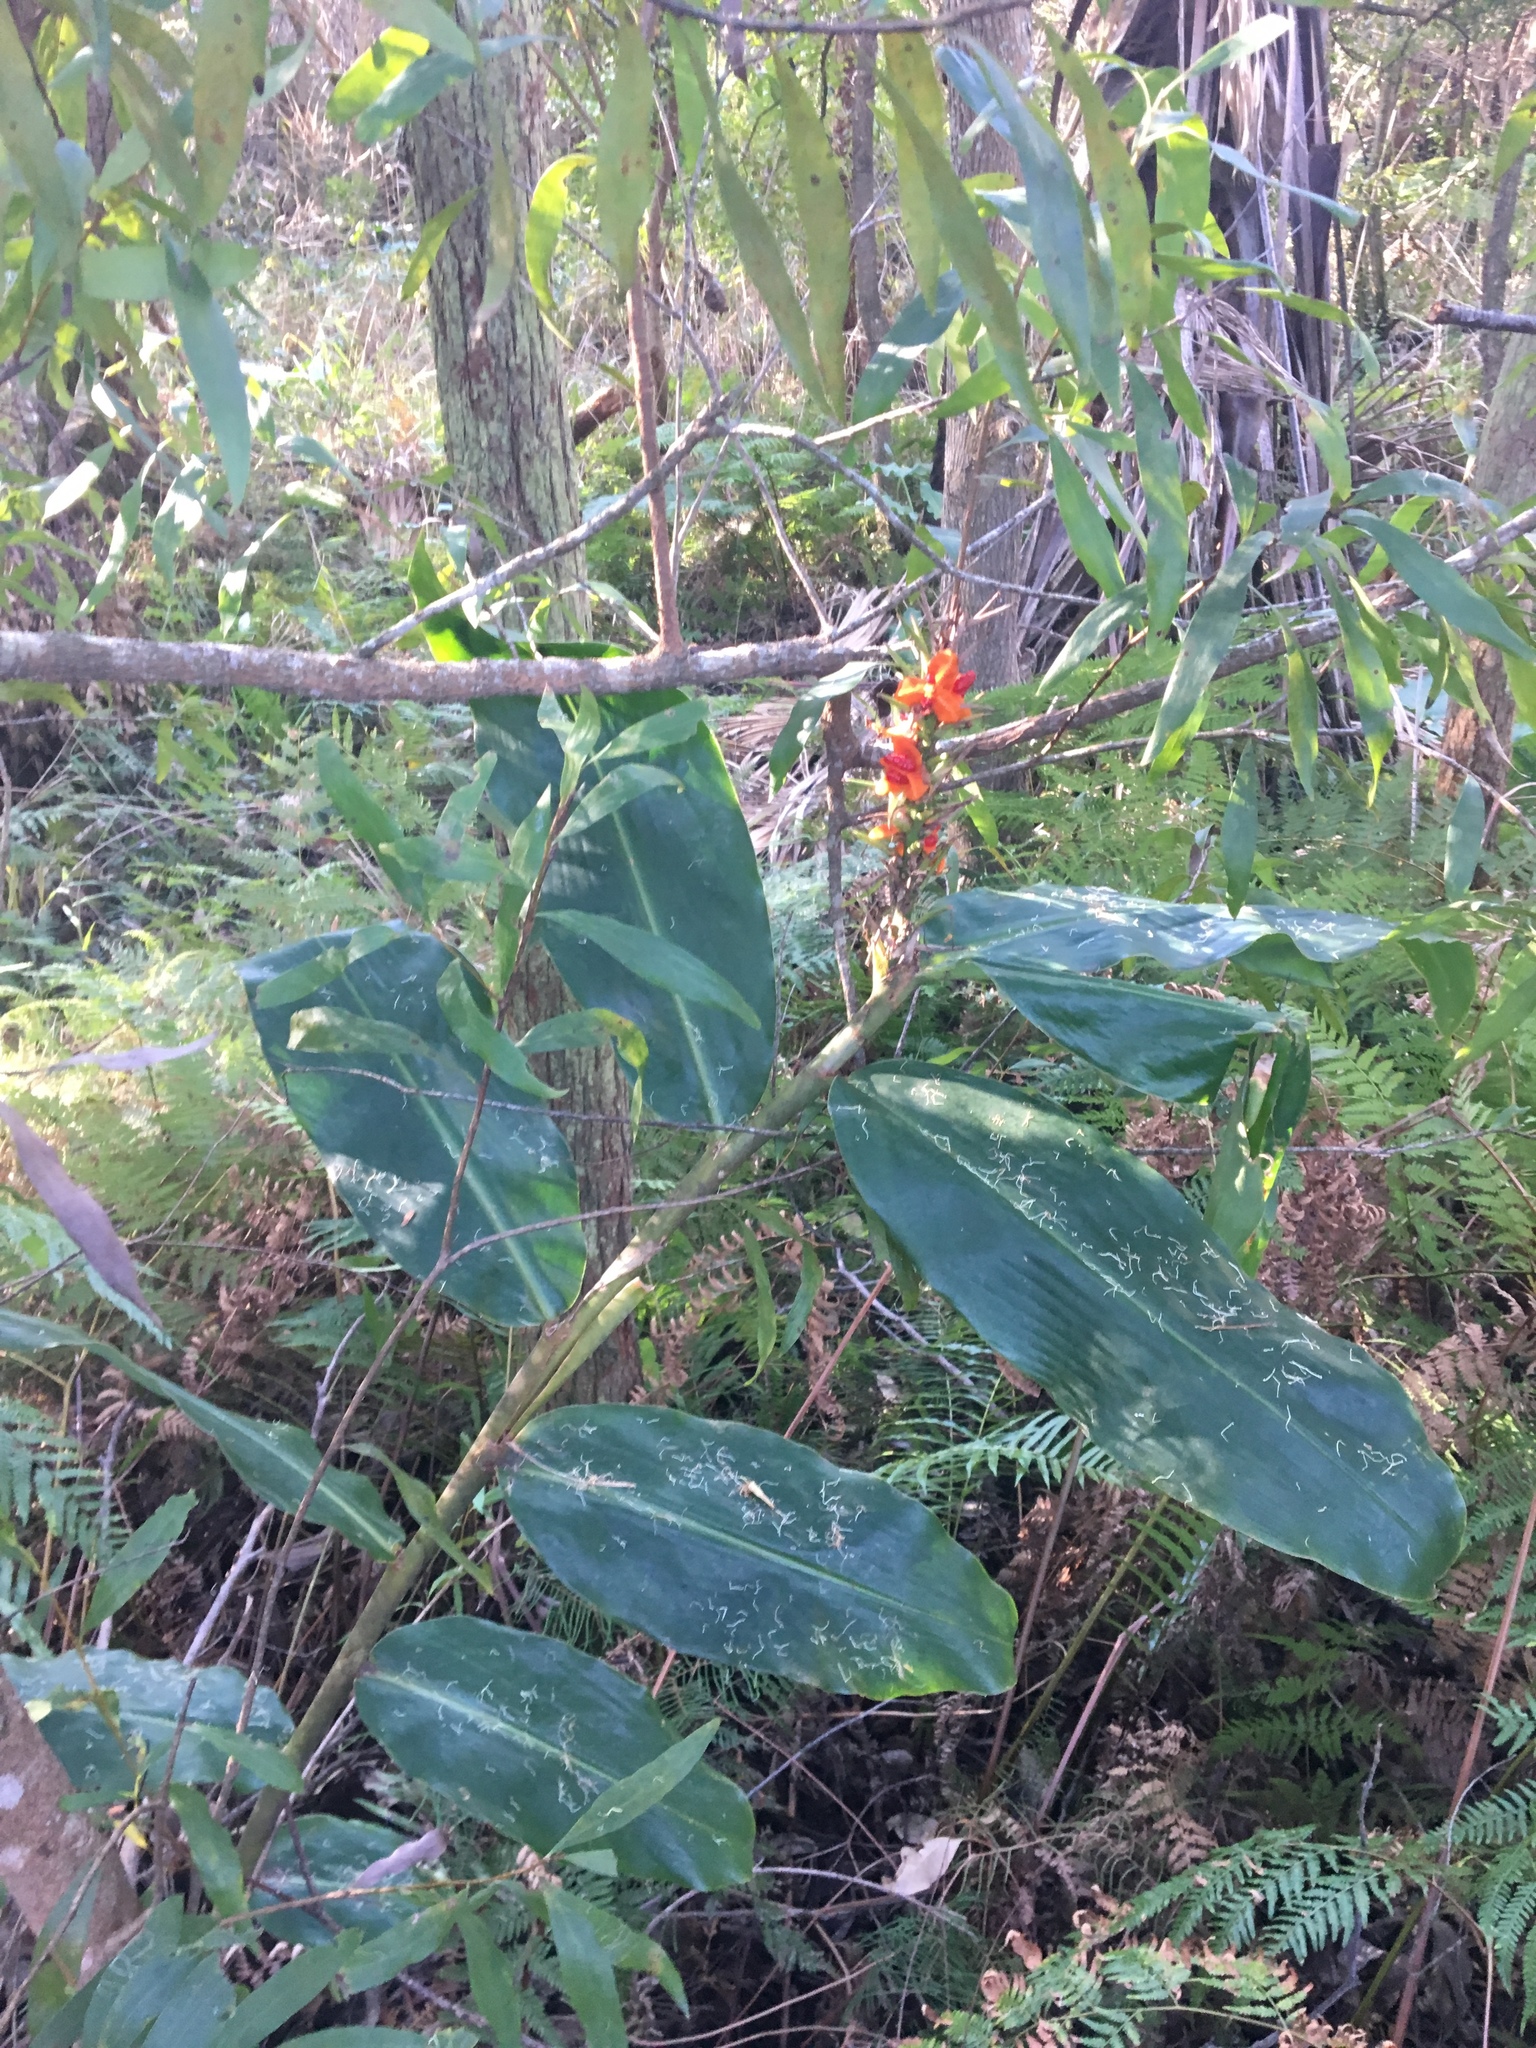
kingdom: Plantae
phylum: Tracheophyta
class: Liliopsida
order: Zingiberales
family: Zingiberaceae
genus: Hedychium
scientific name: Hedychium gardnerianum
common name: Himalayan ginger
